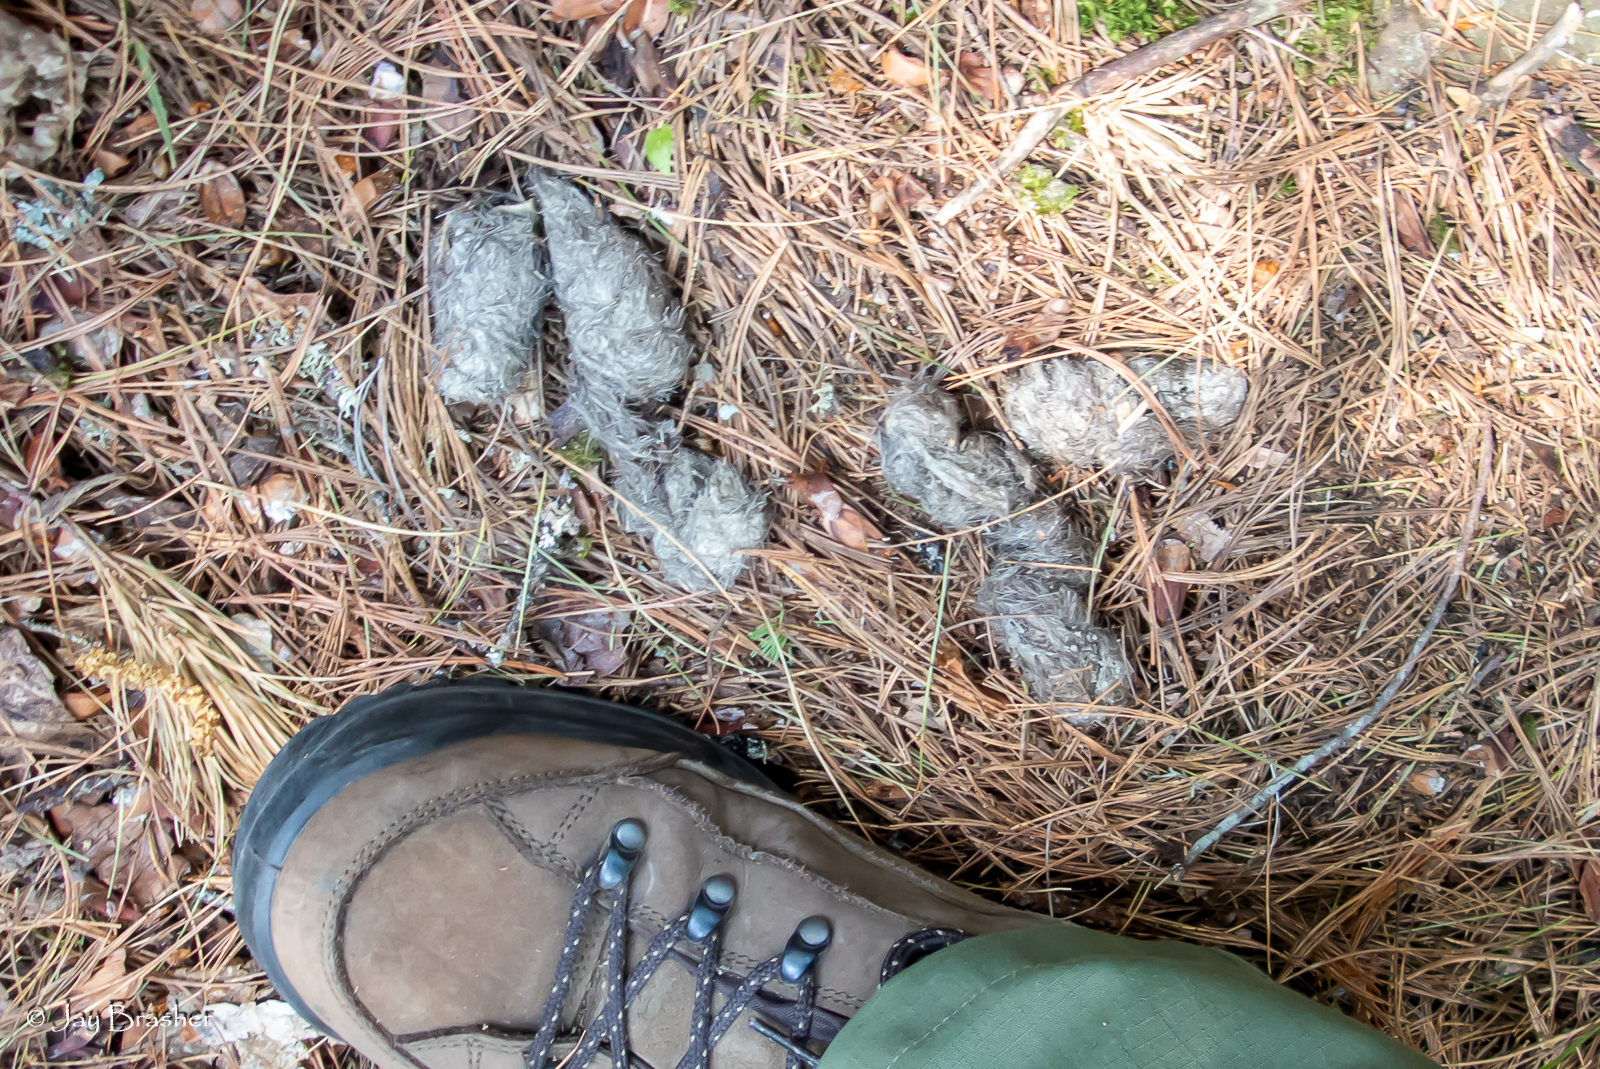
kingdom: Animalia
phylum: Chordata
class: Mammalia
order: Carnivora
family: Canidae
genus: Canis
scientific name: Canis lupus
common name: Gray wolf
